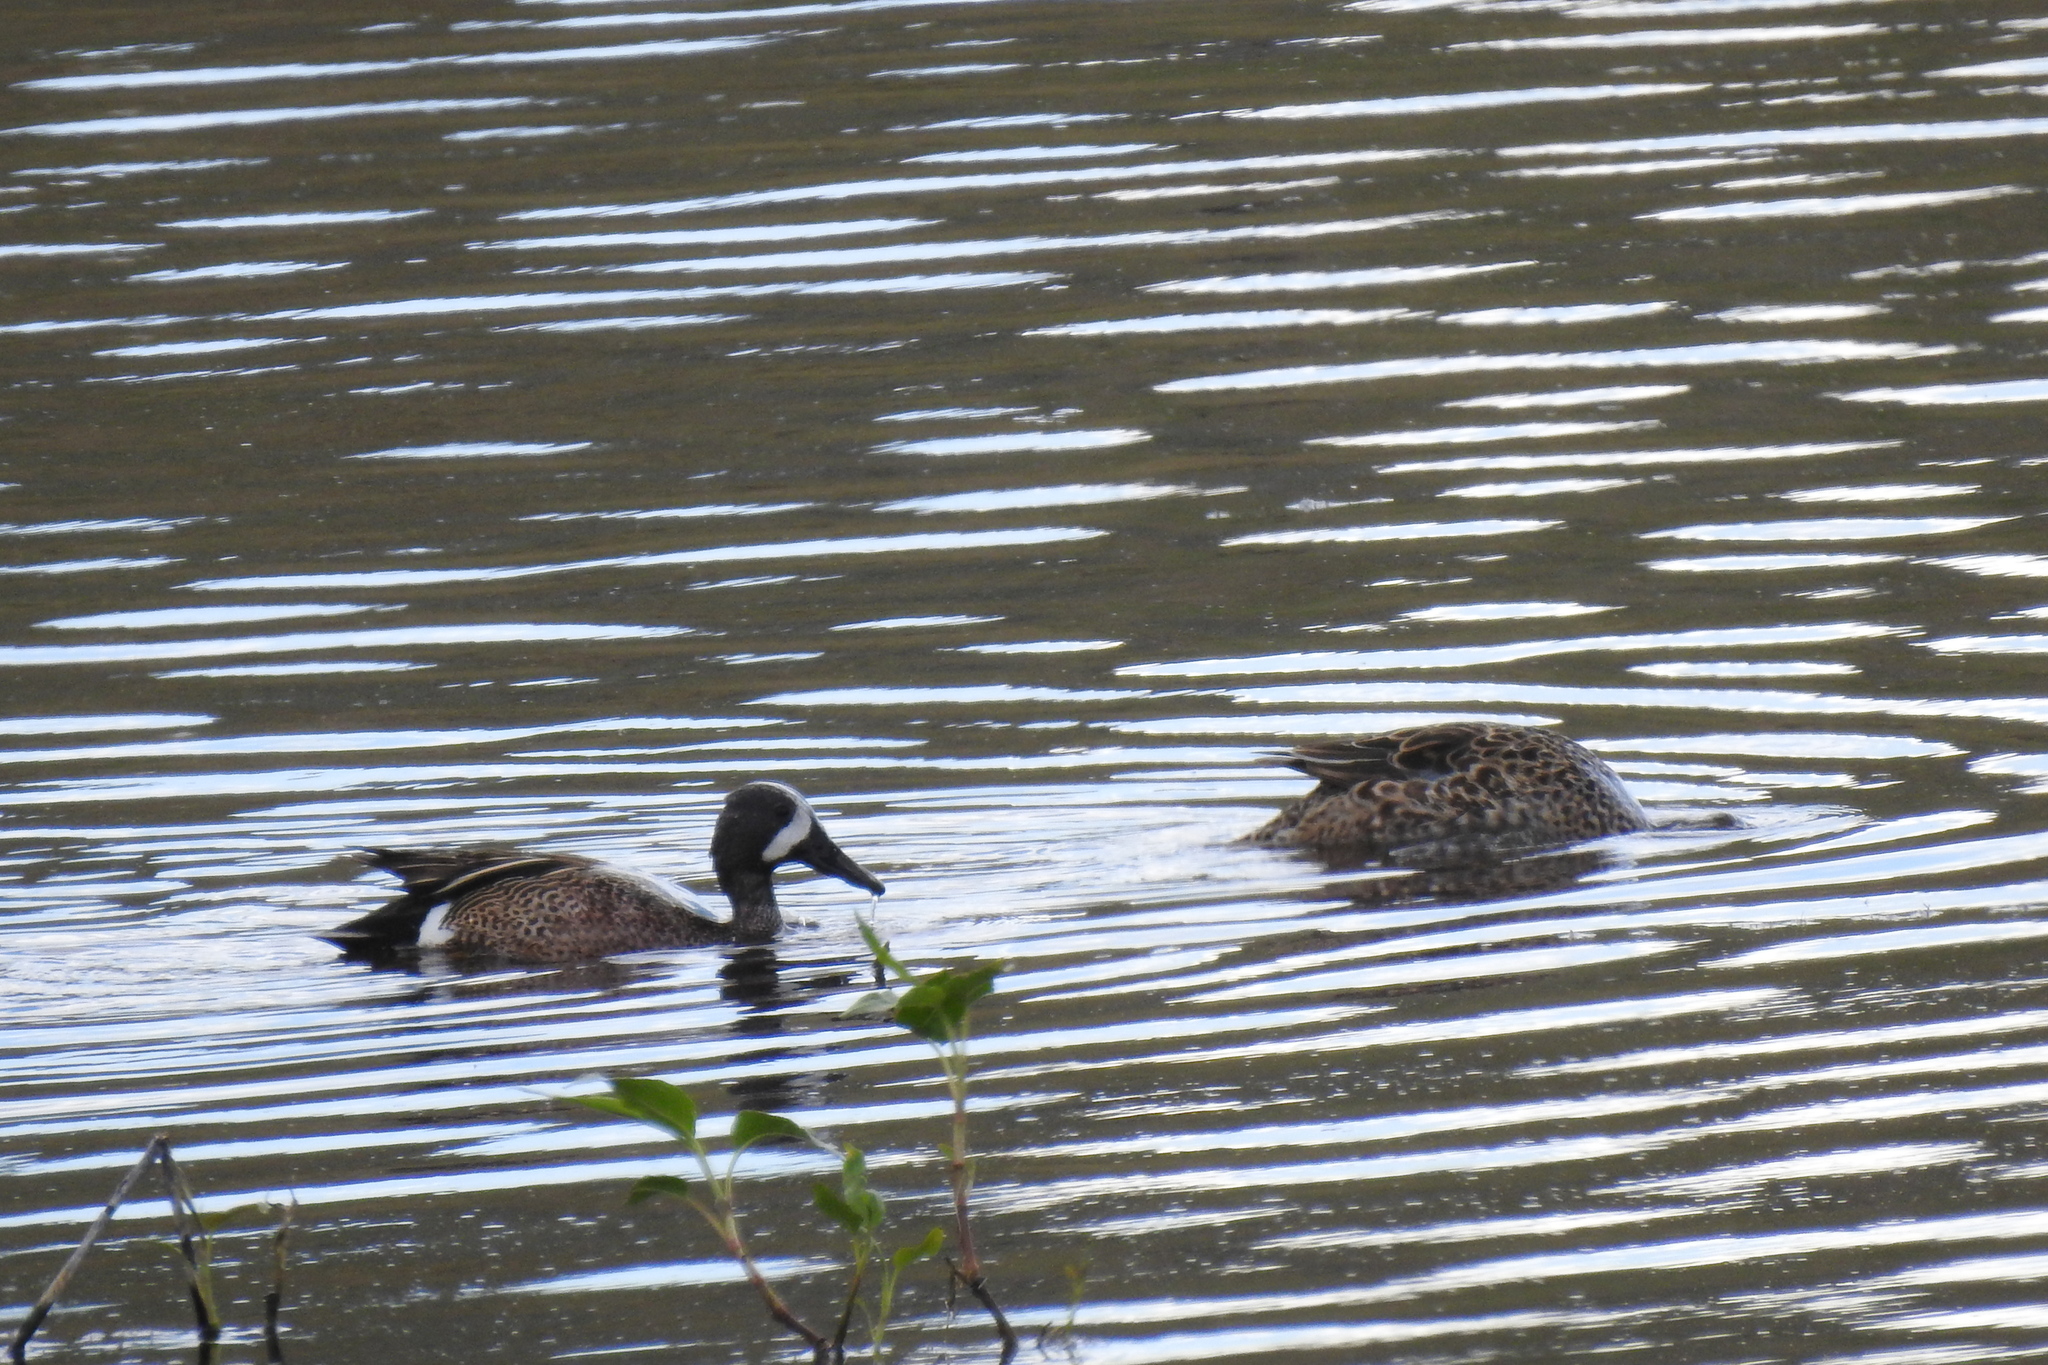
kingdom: Animalia
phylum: Chordata
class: Aves
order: Anseriformes
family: Anatidae
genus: Spatula
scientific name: Spatula discors
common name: Blue-winged teal
